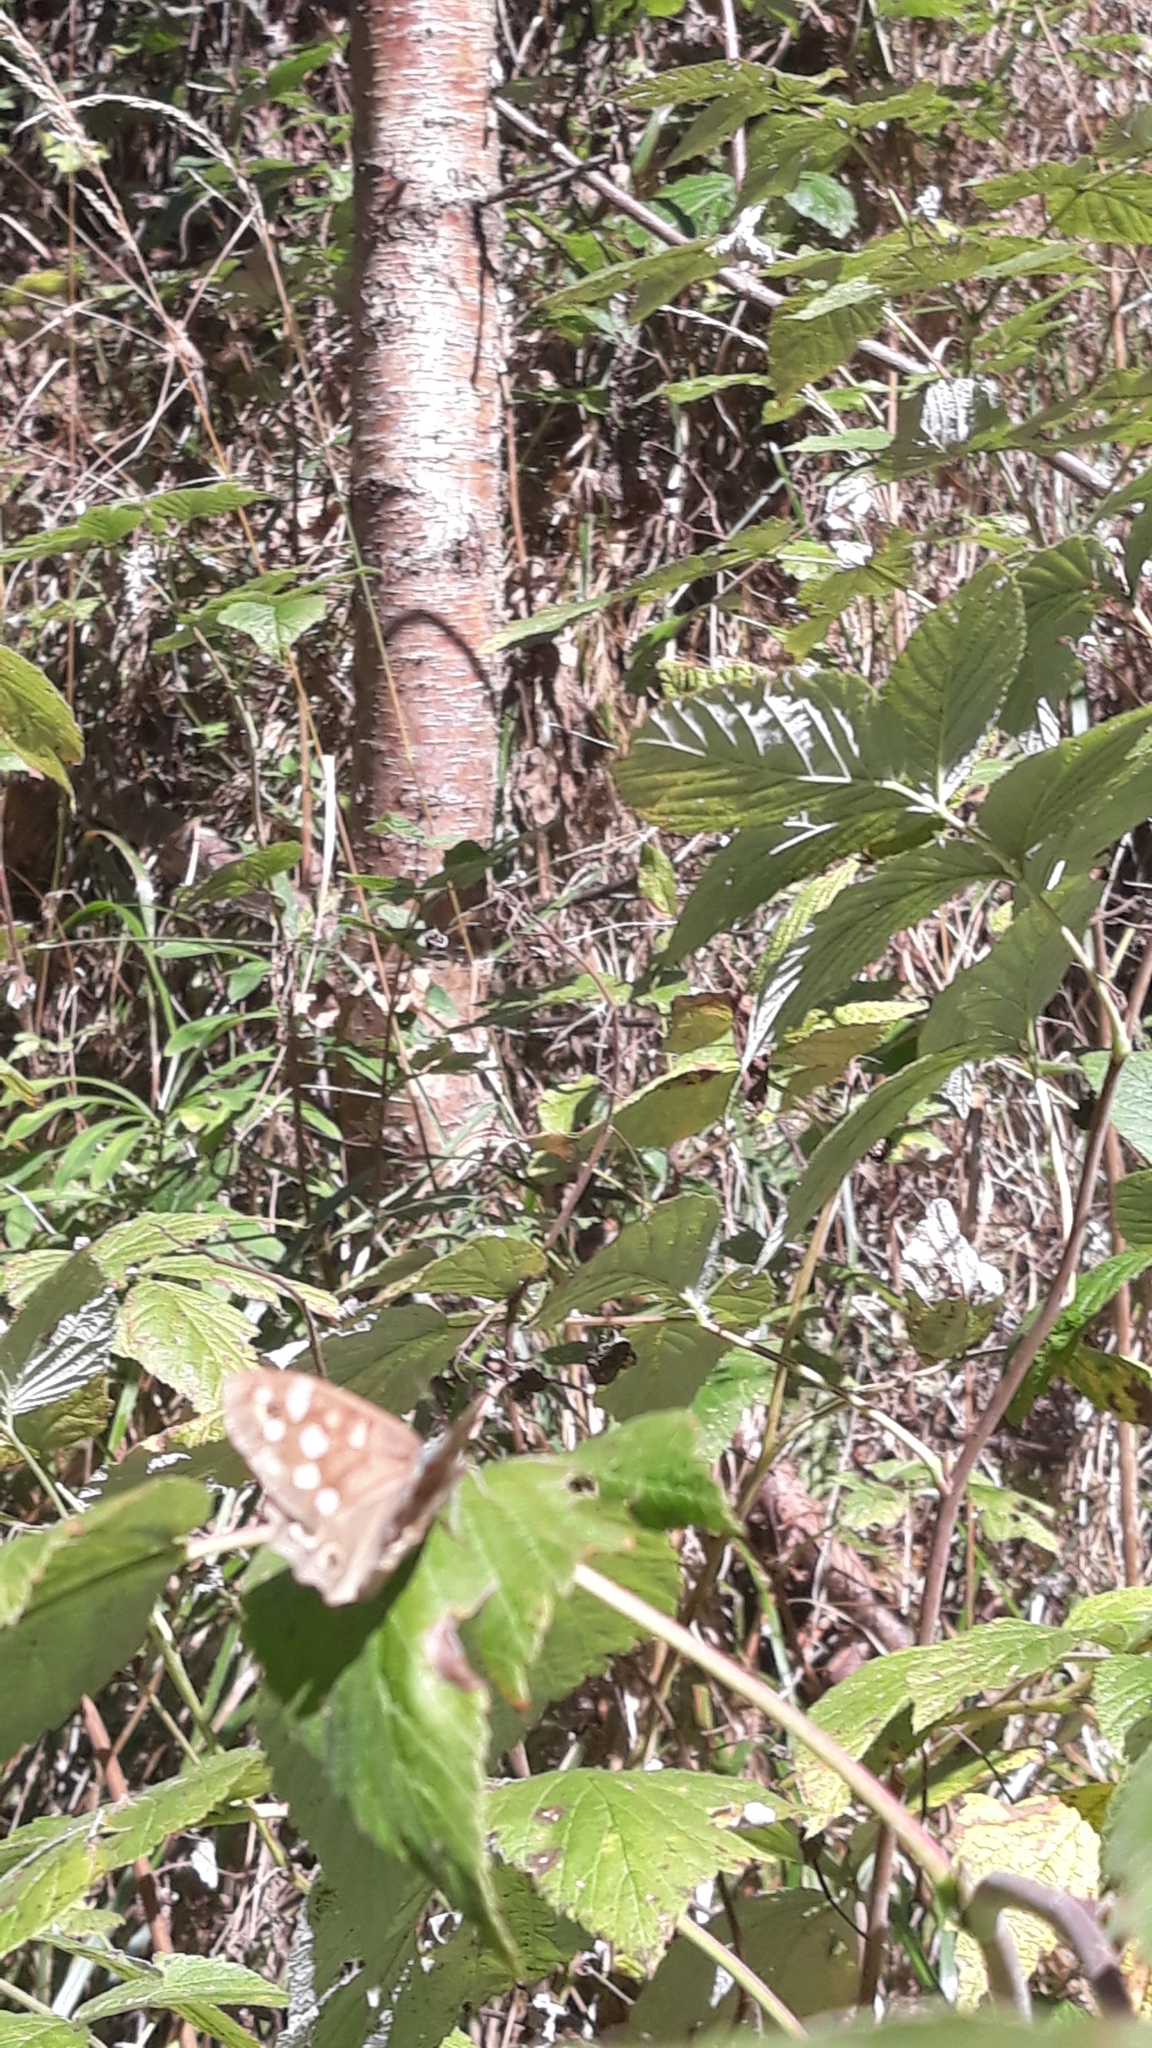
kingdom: Animalia
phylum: Arthropoda
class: Insecta
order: Lepidoptera
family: Nymphalidae
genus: Pararge
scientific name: Pararge aegeria
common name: Speckled wood
